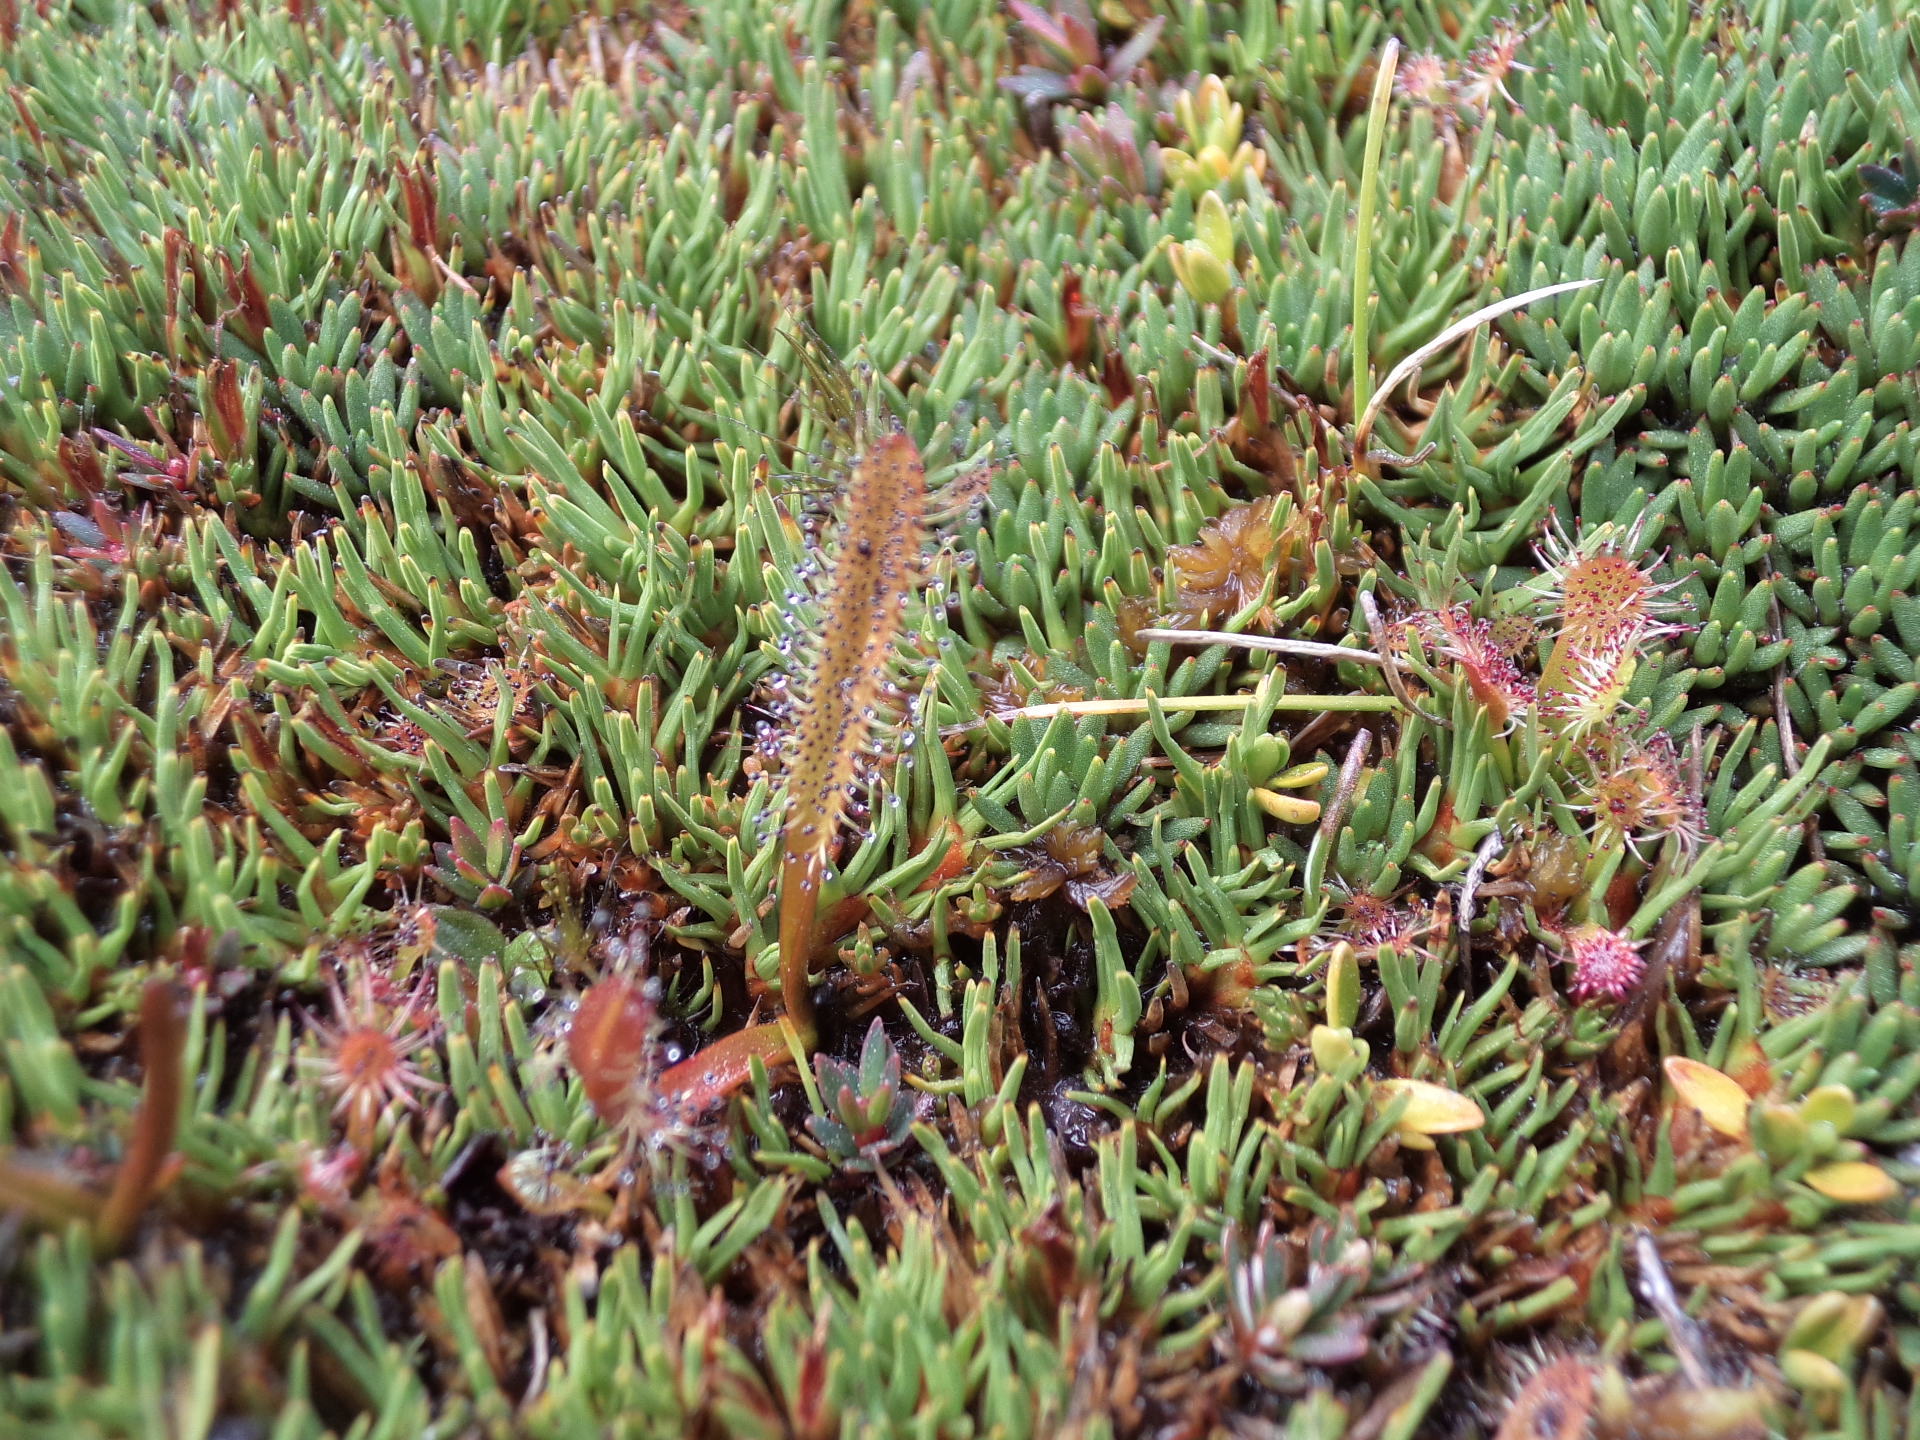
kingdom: Plantae
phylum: Tracheophyta
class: Magnoliopsida
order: Caryophyllales
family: Droseraceae
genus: Drosera
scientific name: Drosera arcturi
